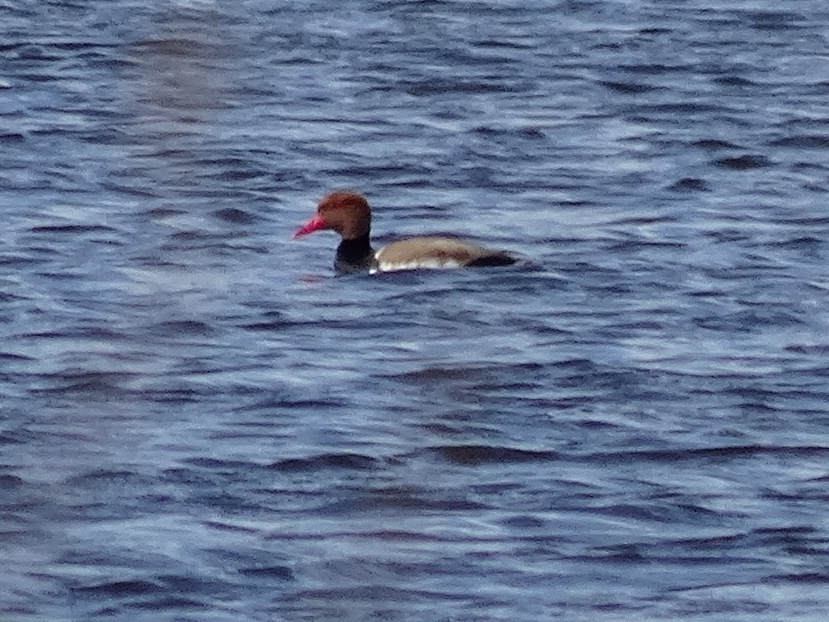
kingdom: Animalia
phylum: Chordata
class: Aves
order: Anseriformes
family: Anatidae
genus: Netta
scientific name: Netta rufina
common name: Red-crested pochard
